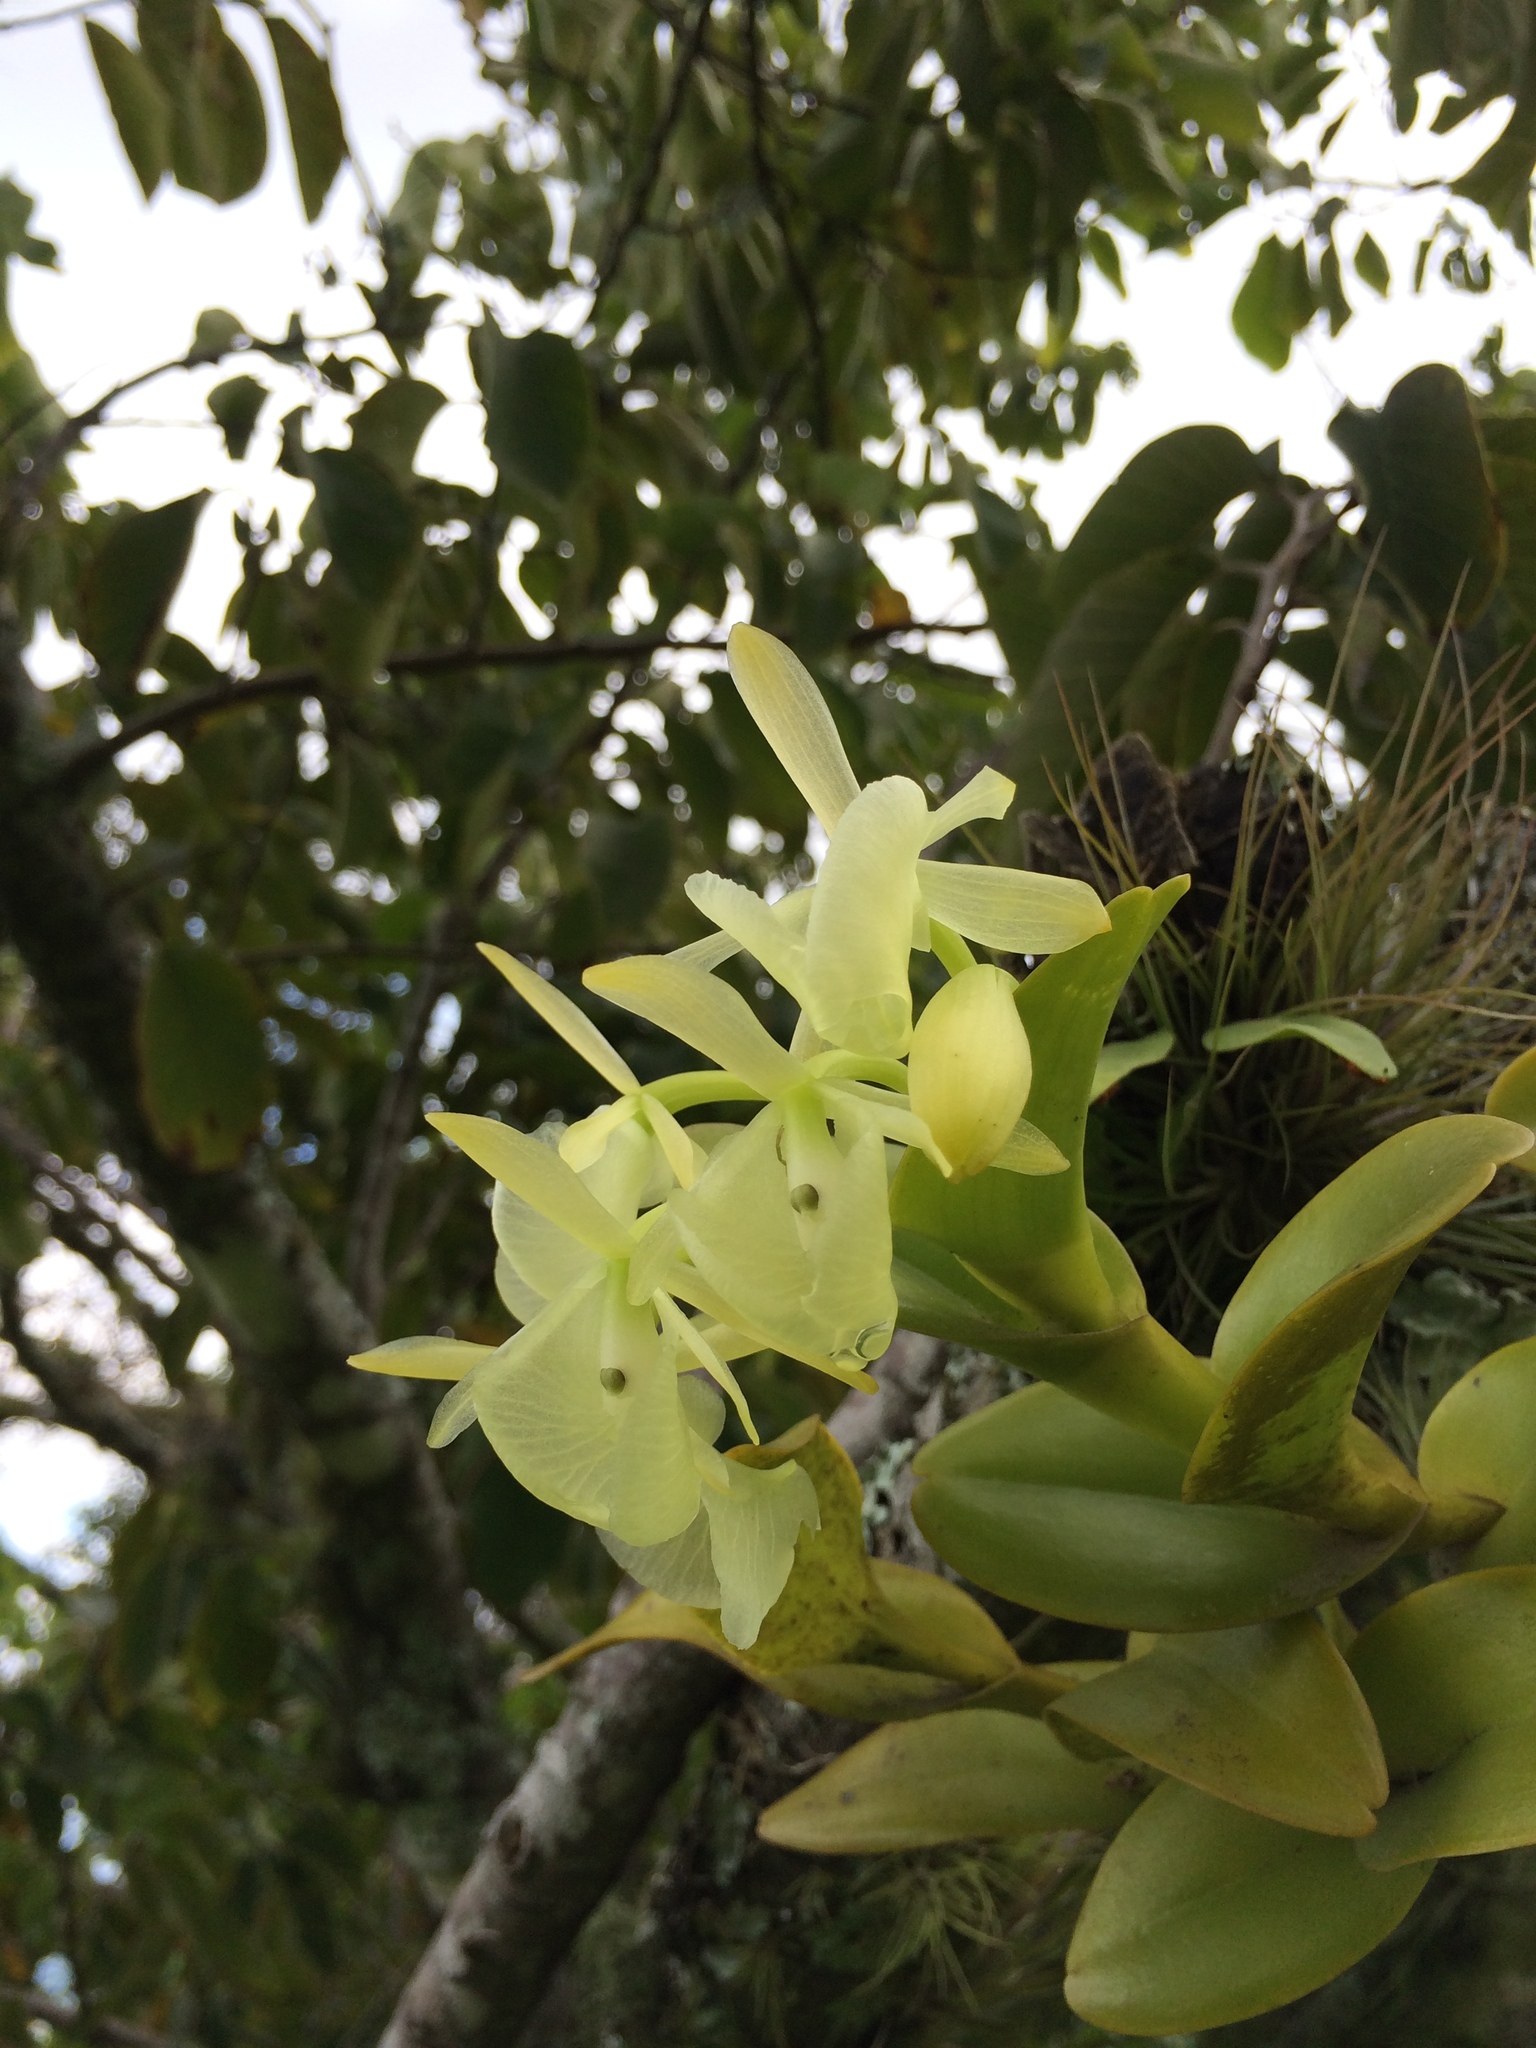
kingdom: Plantae
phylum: Tracheophyta
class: Liliopsida
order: Asparagales
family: Orchidaceae
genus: Epidendrum
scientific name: Epidendrum barbeyanum
